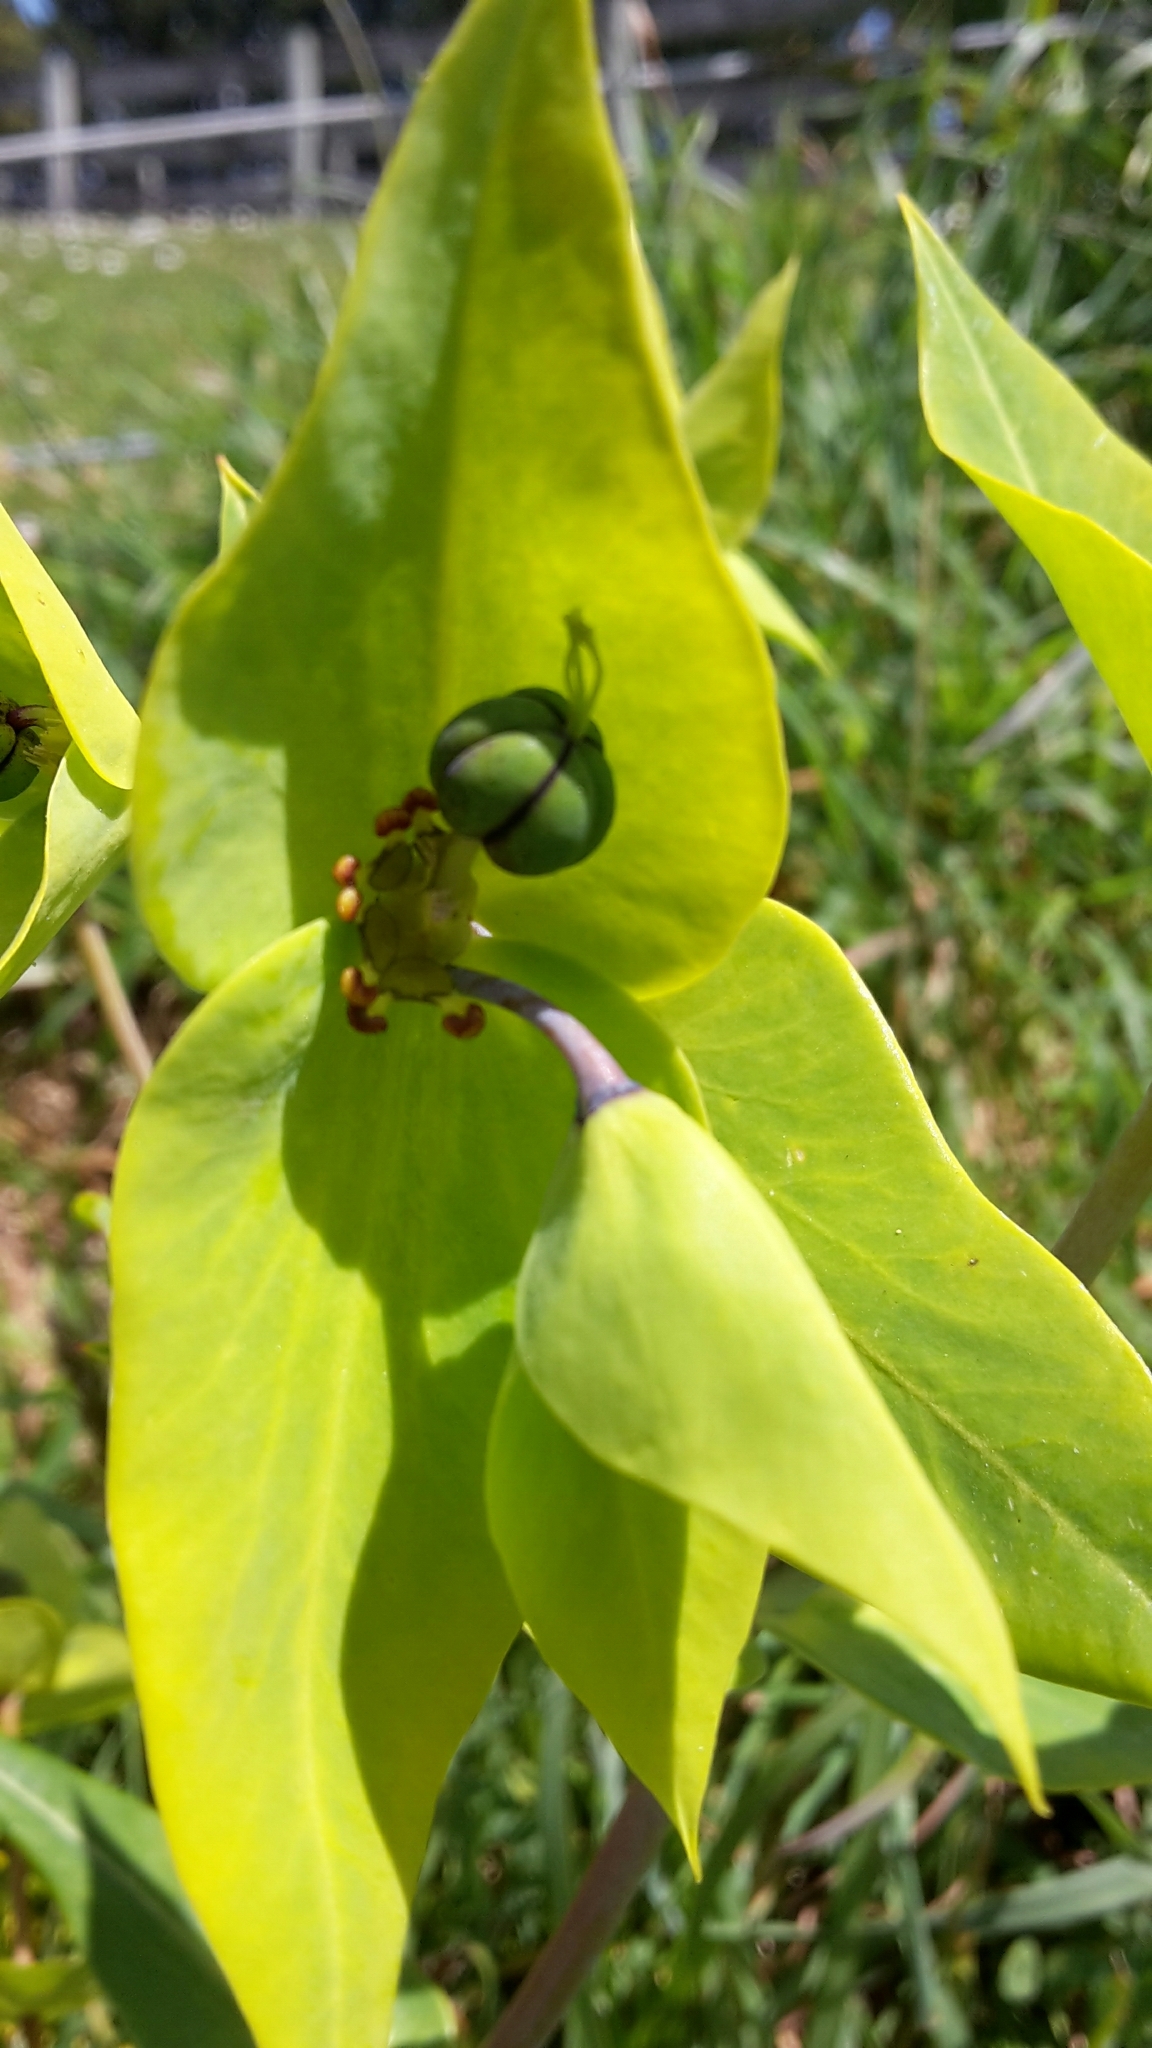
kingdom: Plantae
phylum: Tracheophyta
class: Magnoliopsida
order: Malpighiales
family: Euphorbiaceae
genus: Euphorbia
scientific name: Euphorbia lathyris
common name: Caper spurge
